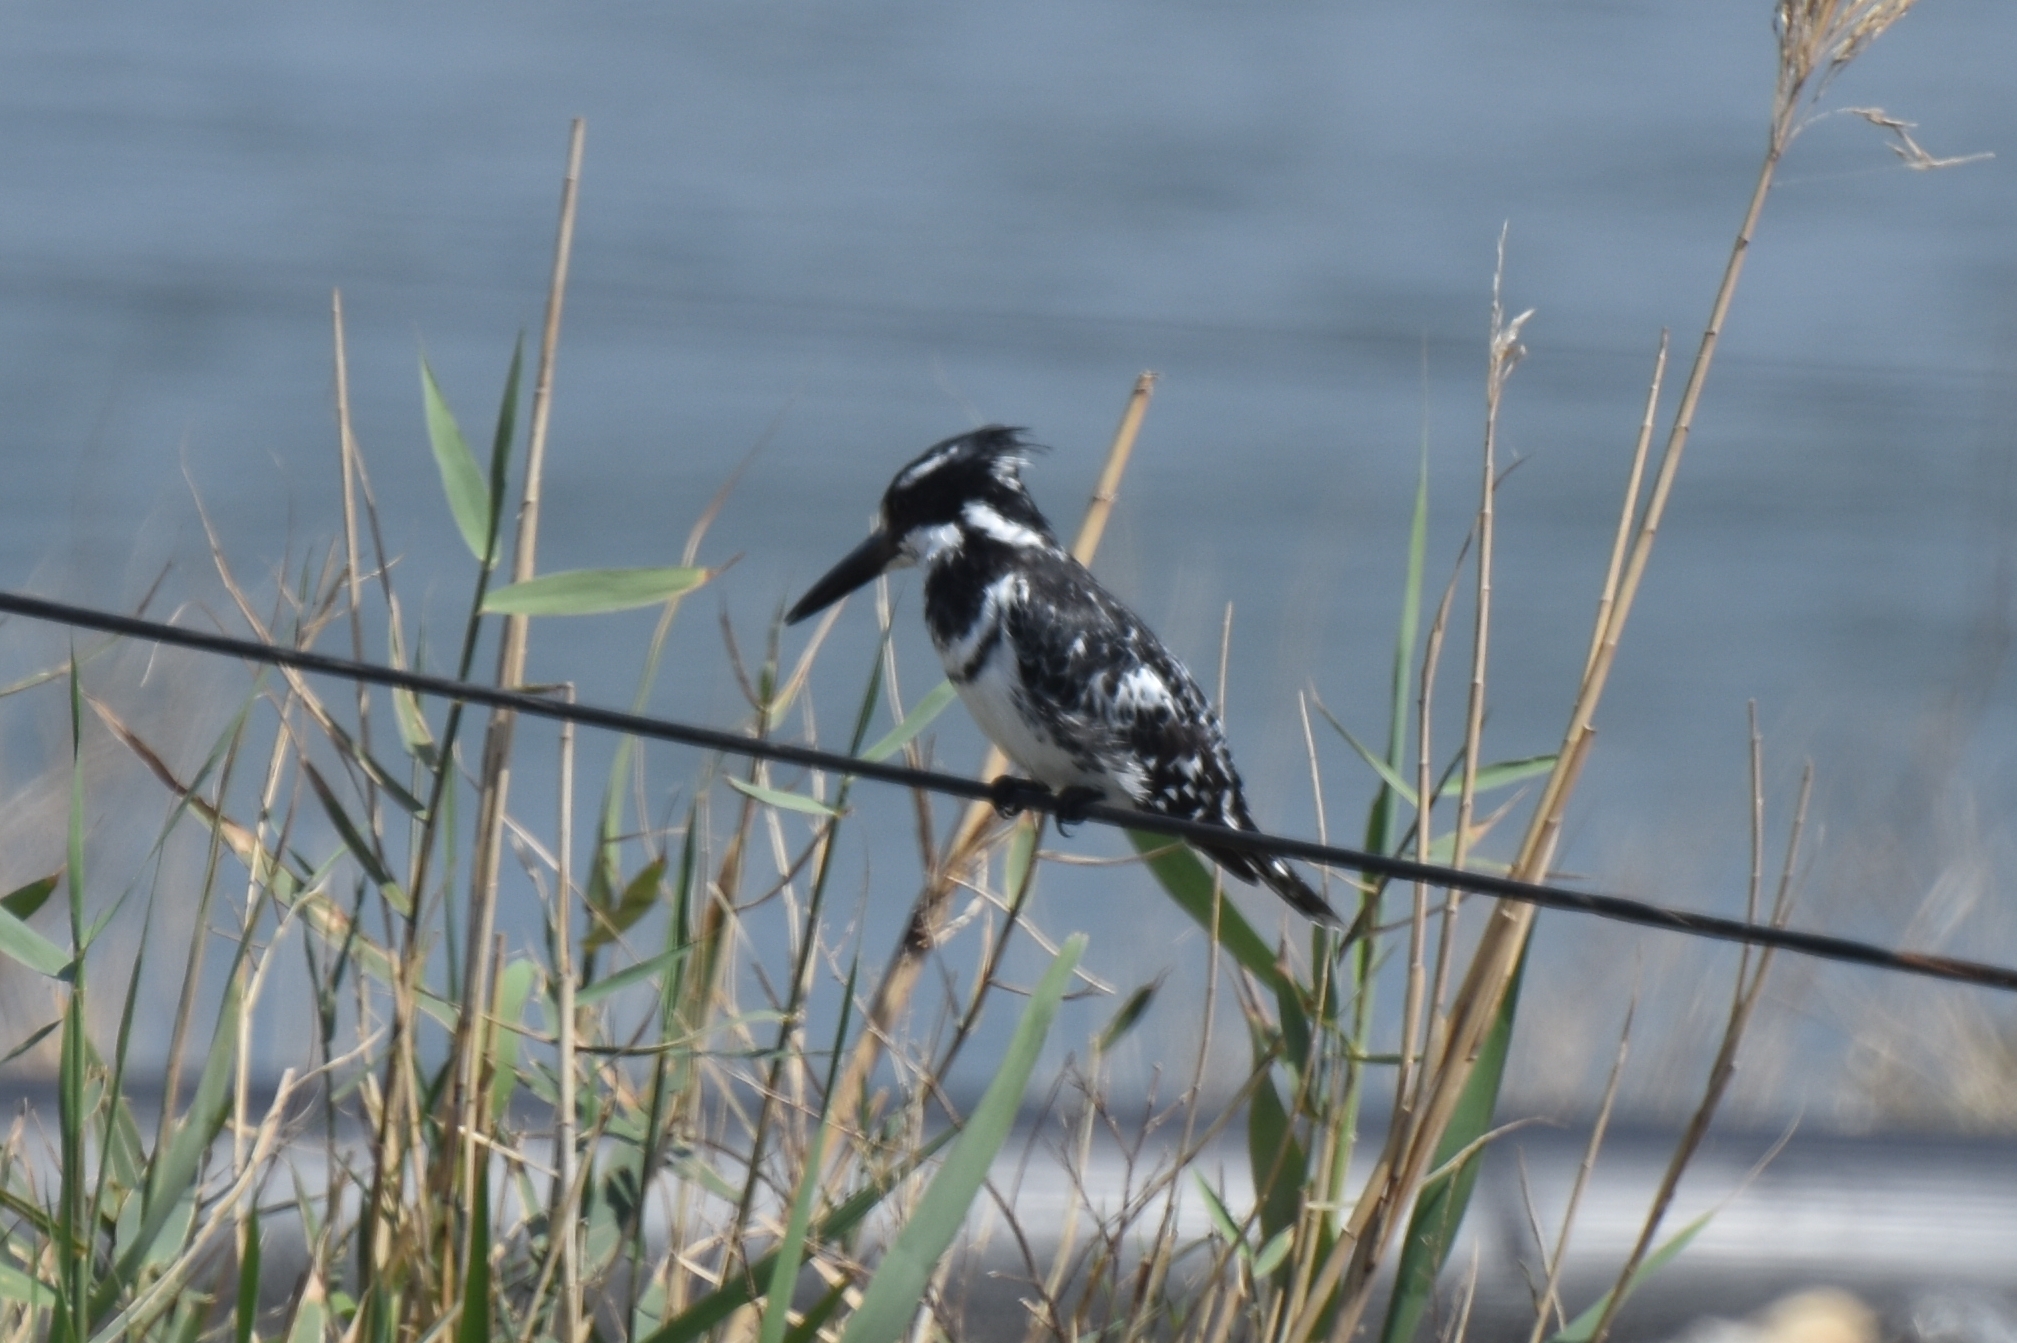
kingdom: Animalia
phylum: Chordata
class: Aves
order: Coraciiformes
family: Alcedinidae
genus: Ceryle
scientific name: Ceryle rudis
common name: Pied kingfisher
